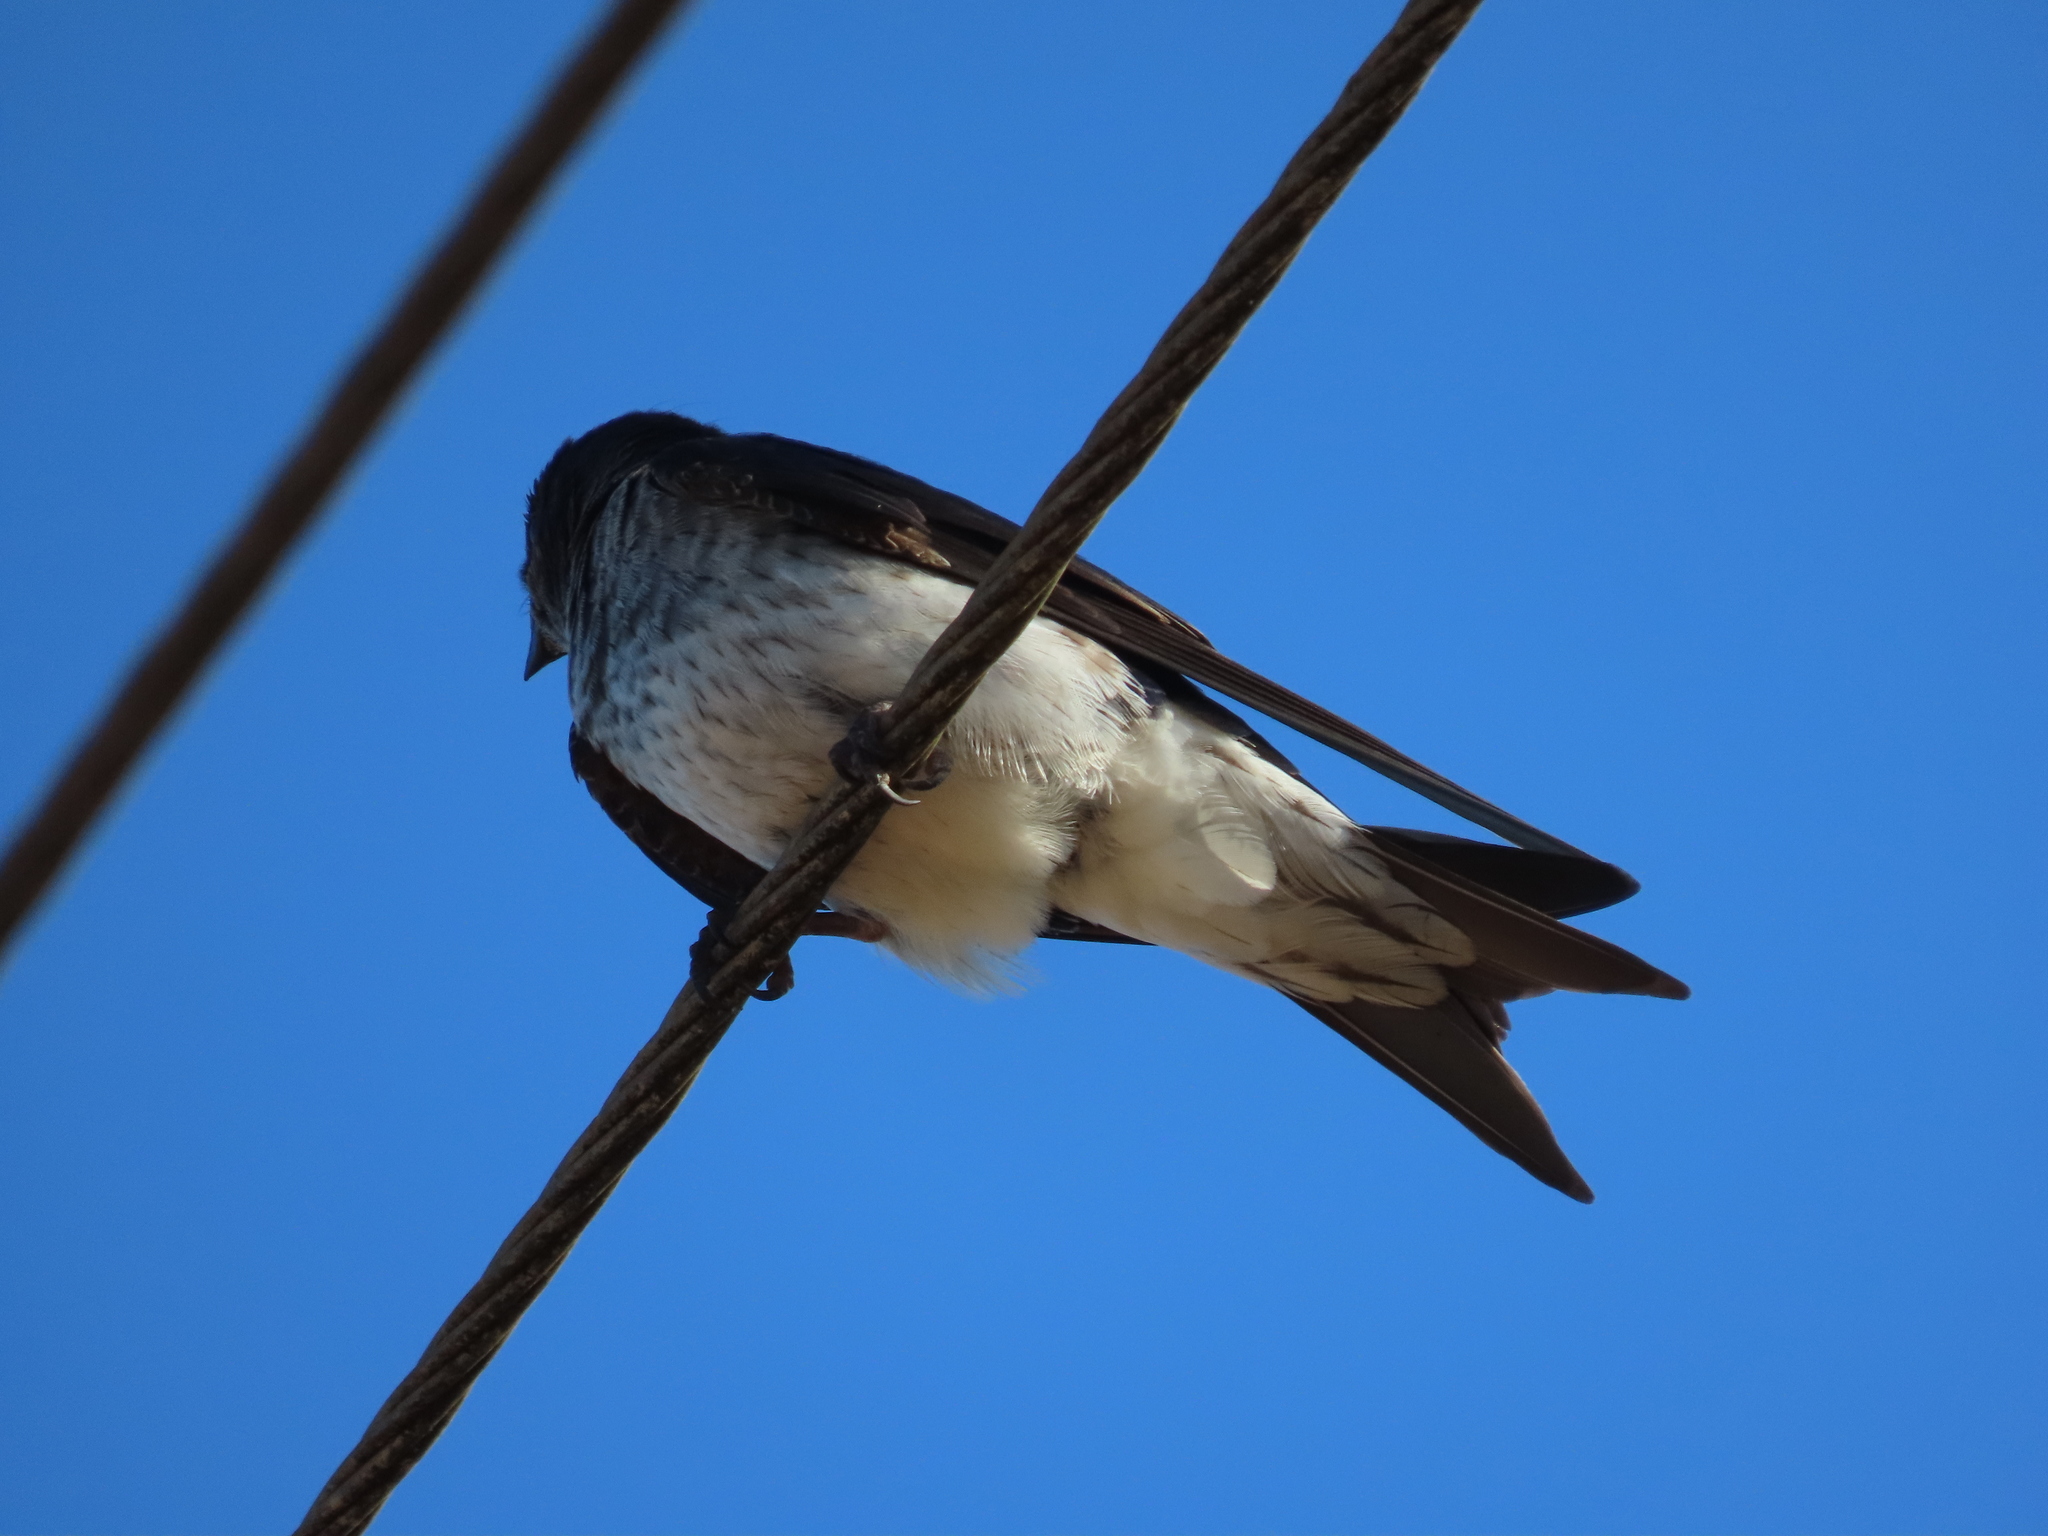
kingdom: Animalia
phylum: Chordata
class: Aves
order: Passeriformes
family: Hirundinidae
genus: Progne
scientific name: Progne chalybea
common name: Grey-breasted martin
